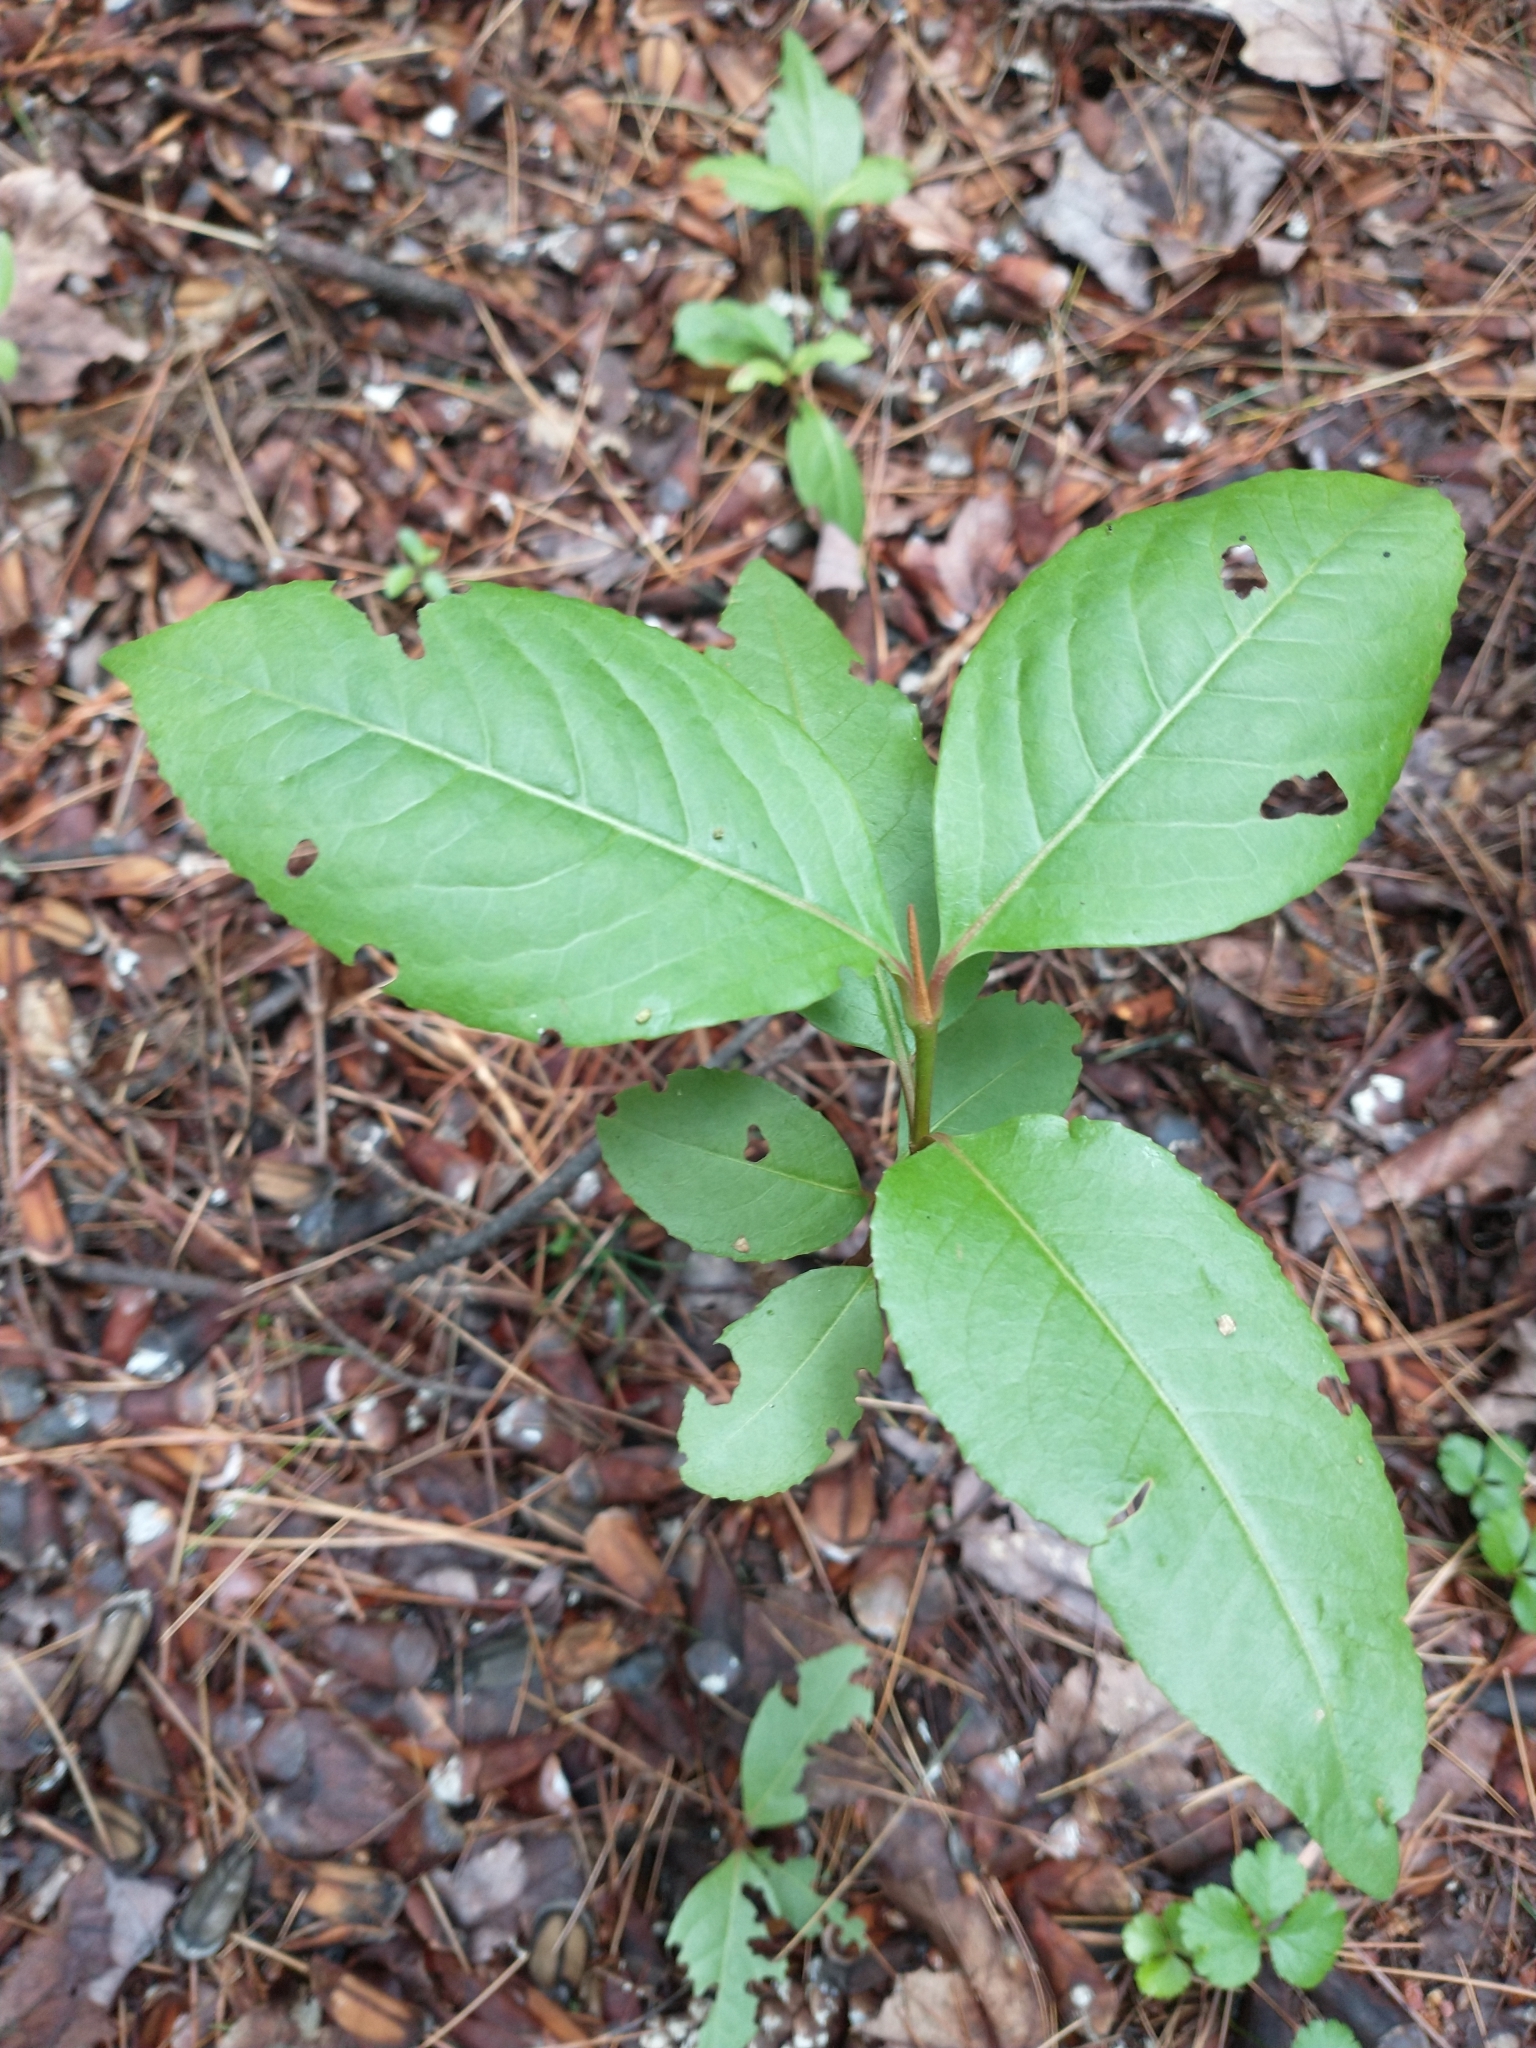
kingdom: Plantae
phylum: Tracheophyta
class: Magnoliopsida
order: Dipsacales
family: Viburnaceae
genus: Viburnum
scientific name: Viburnum cassinoides
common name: Swamp haw
